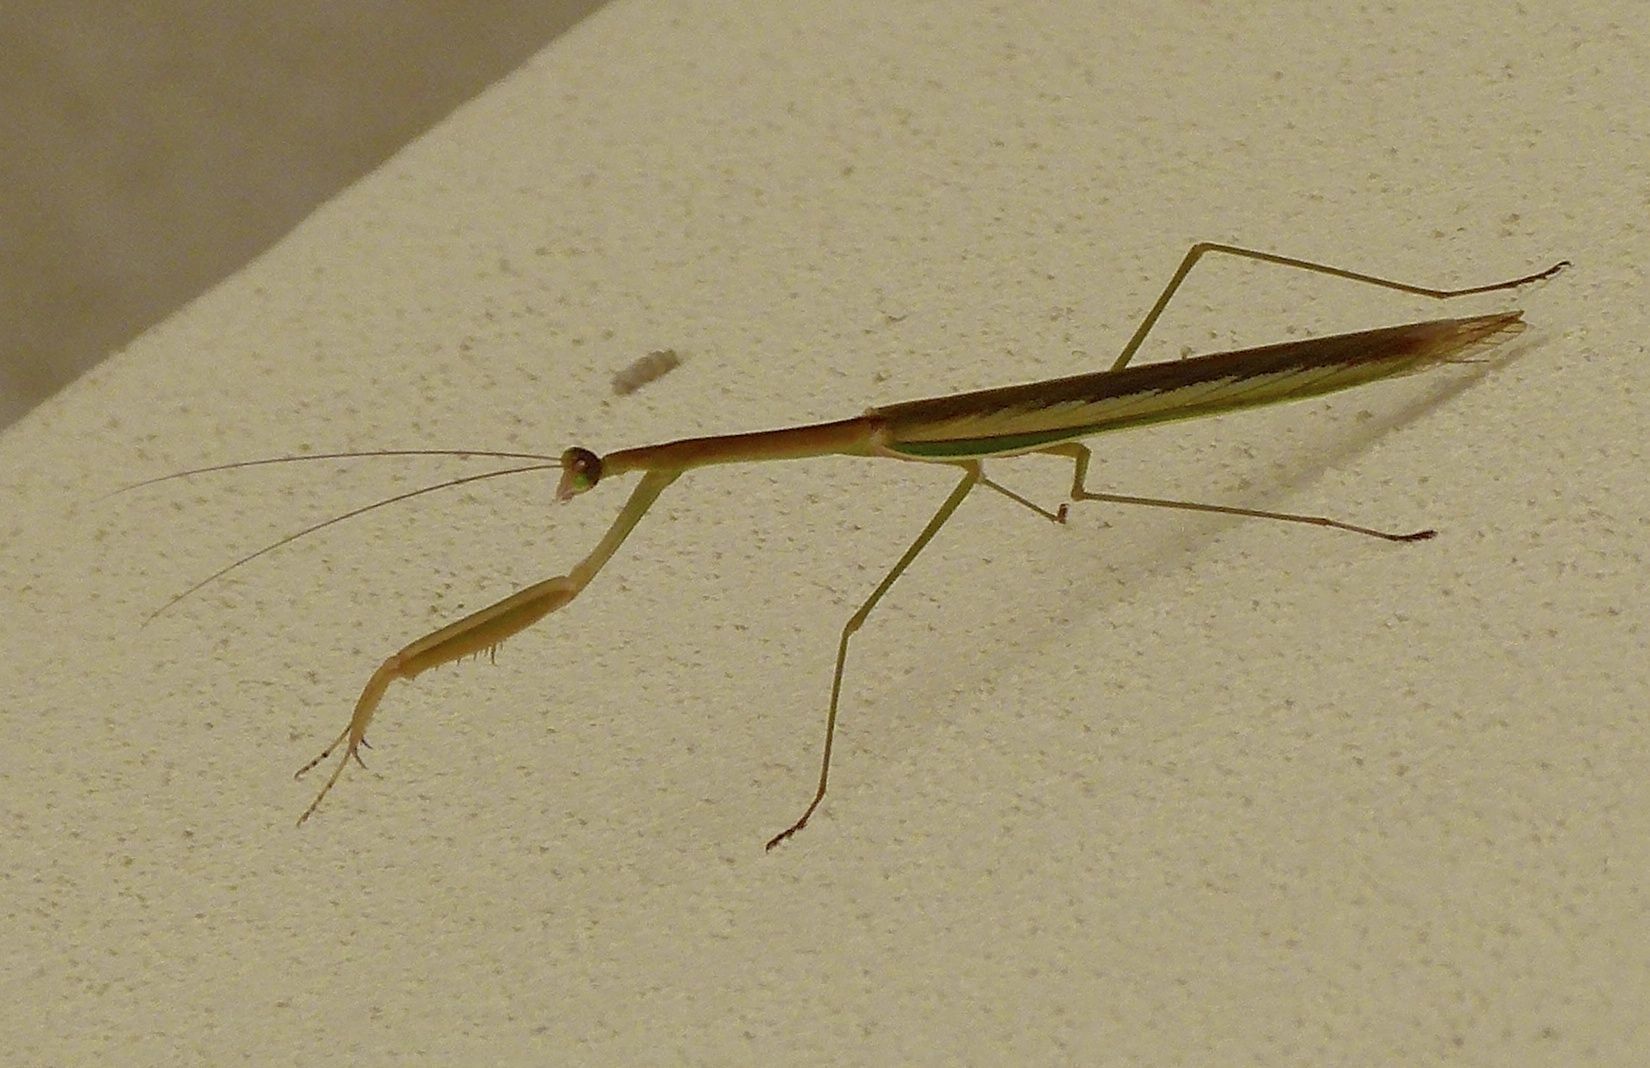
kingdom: Animalia
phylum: Arthropoda
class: Insecta
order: Mantodea
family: Mantidae
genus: Tenodera
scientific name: Tenodera australasiae
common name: Purple-winged mantis
